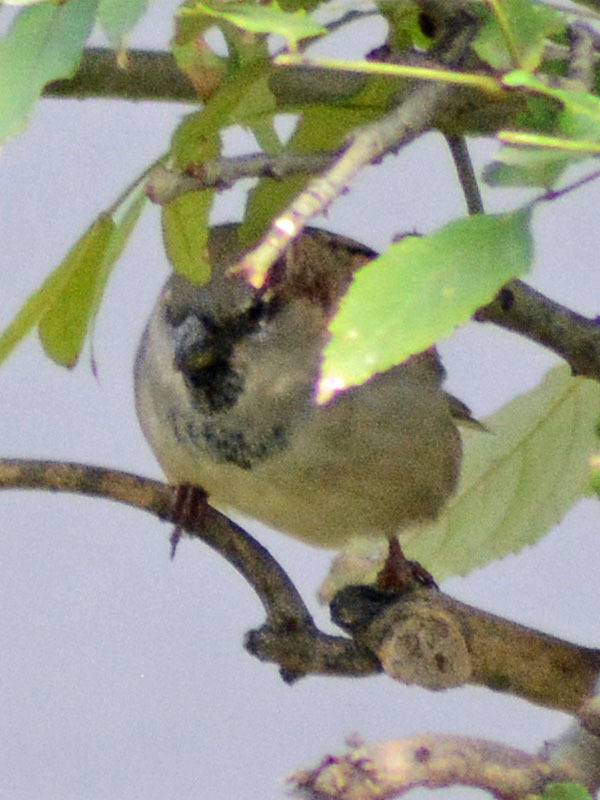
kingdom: Animalia
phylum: Chordata
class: Aves
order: Passeriformes
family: Passeridae
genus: Passer
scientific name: Passer domesticus
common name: House sparrow
